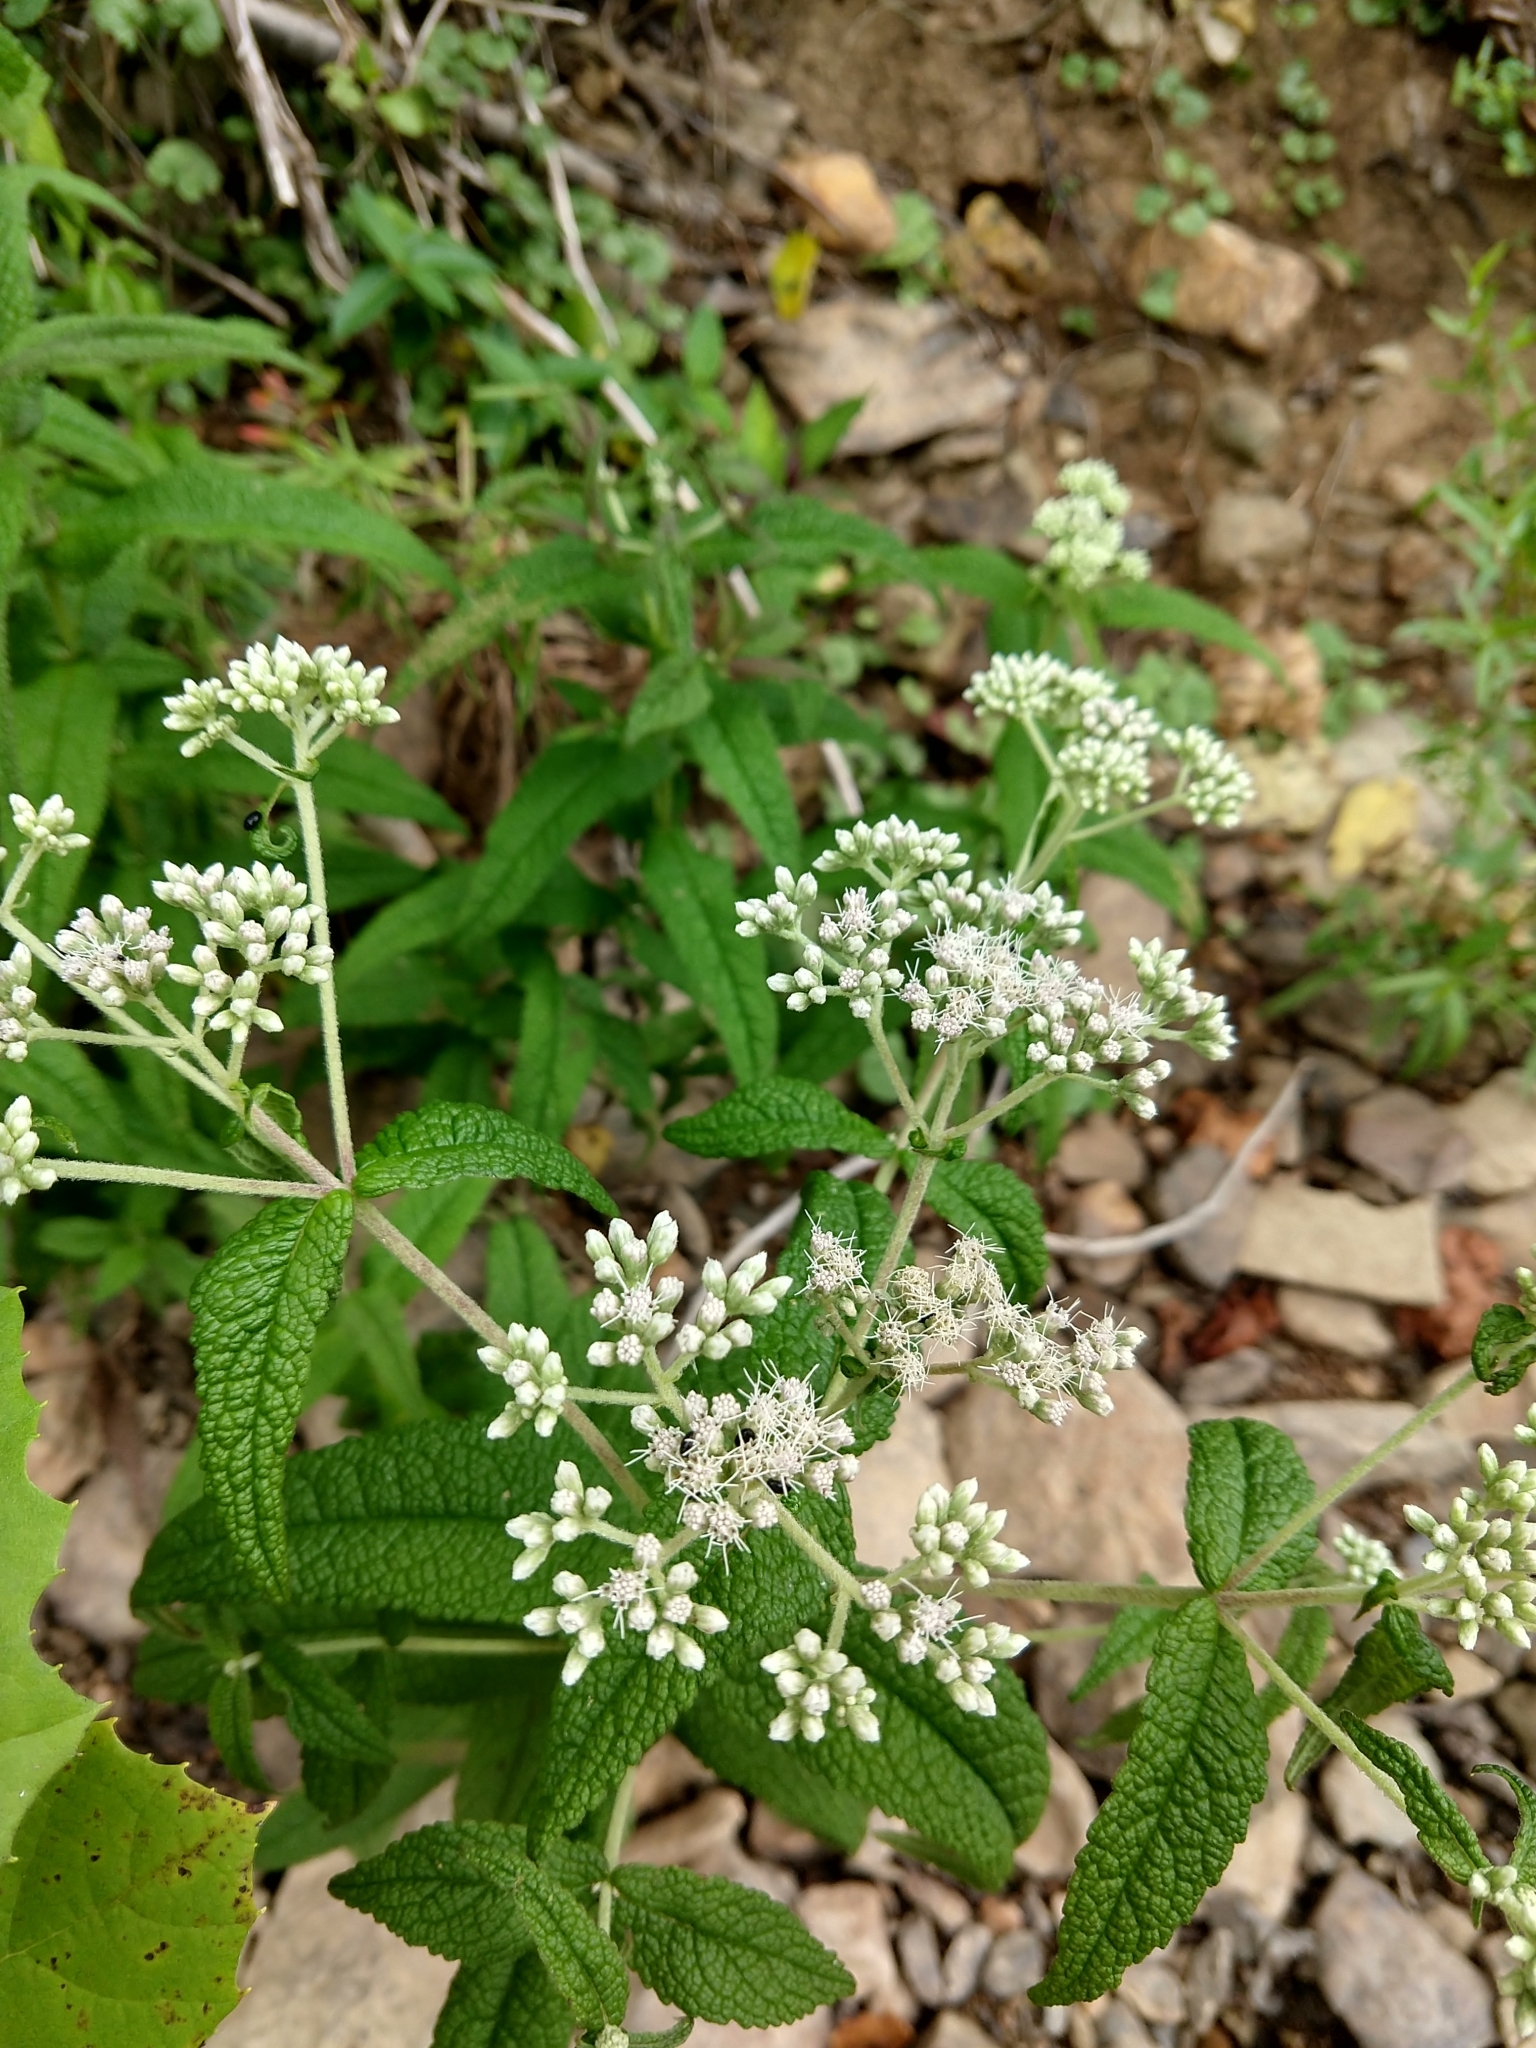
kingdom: Plantae
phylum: Tracheophyta
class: Magnoliopsida
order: Asterales
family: Asteraceae
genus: Eupatorium
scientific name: Eupatorium perfoliatum
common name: Boneset
